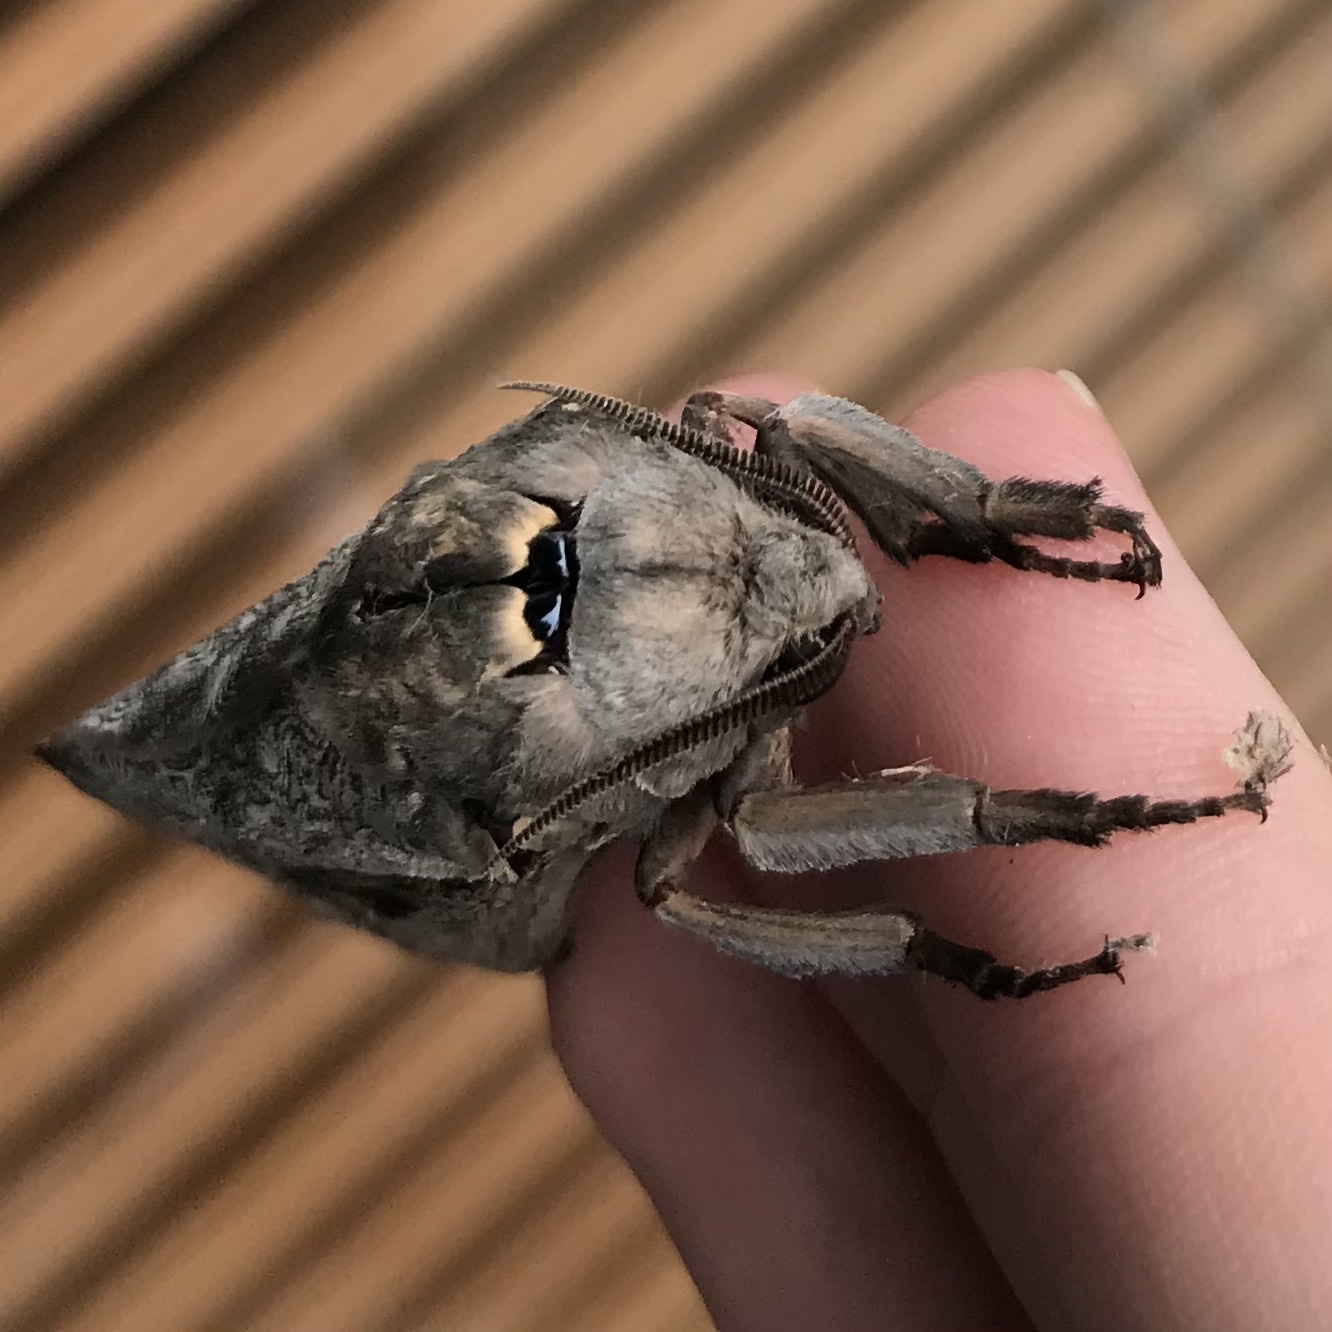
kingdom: Animalia
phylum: Arthropoda
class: Insecta
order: Lepidoptera
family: Hepialidae
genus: Abantiades
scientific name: Abantiades labyrinthicus
